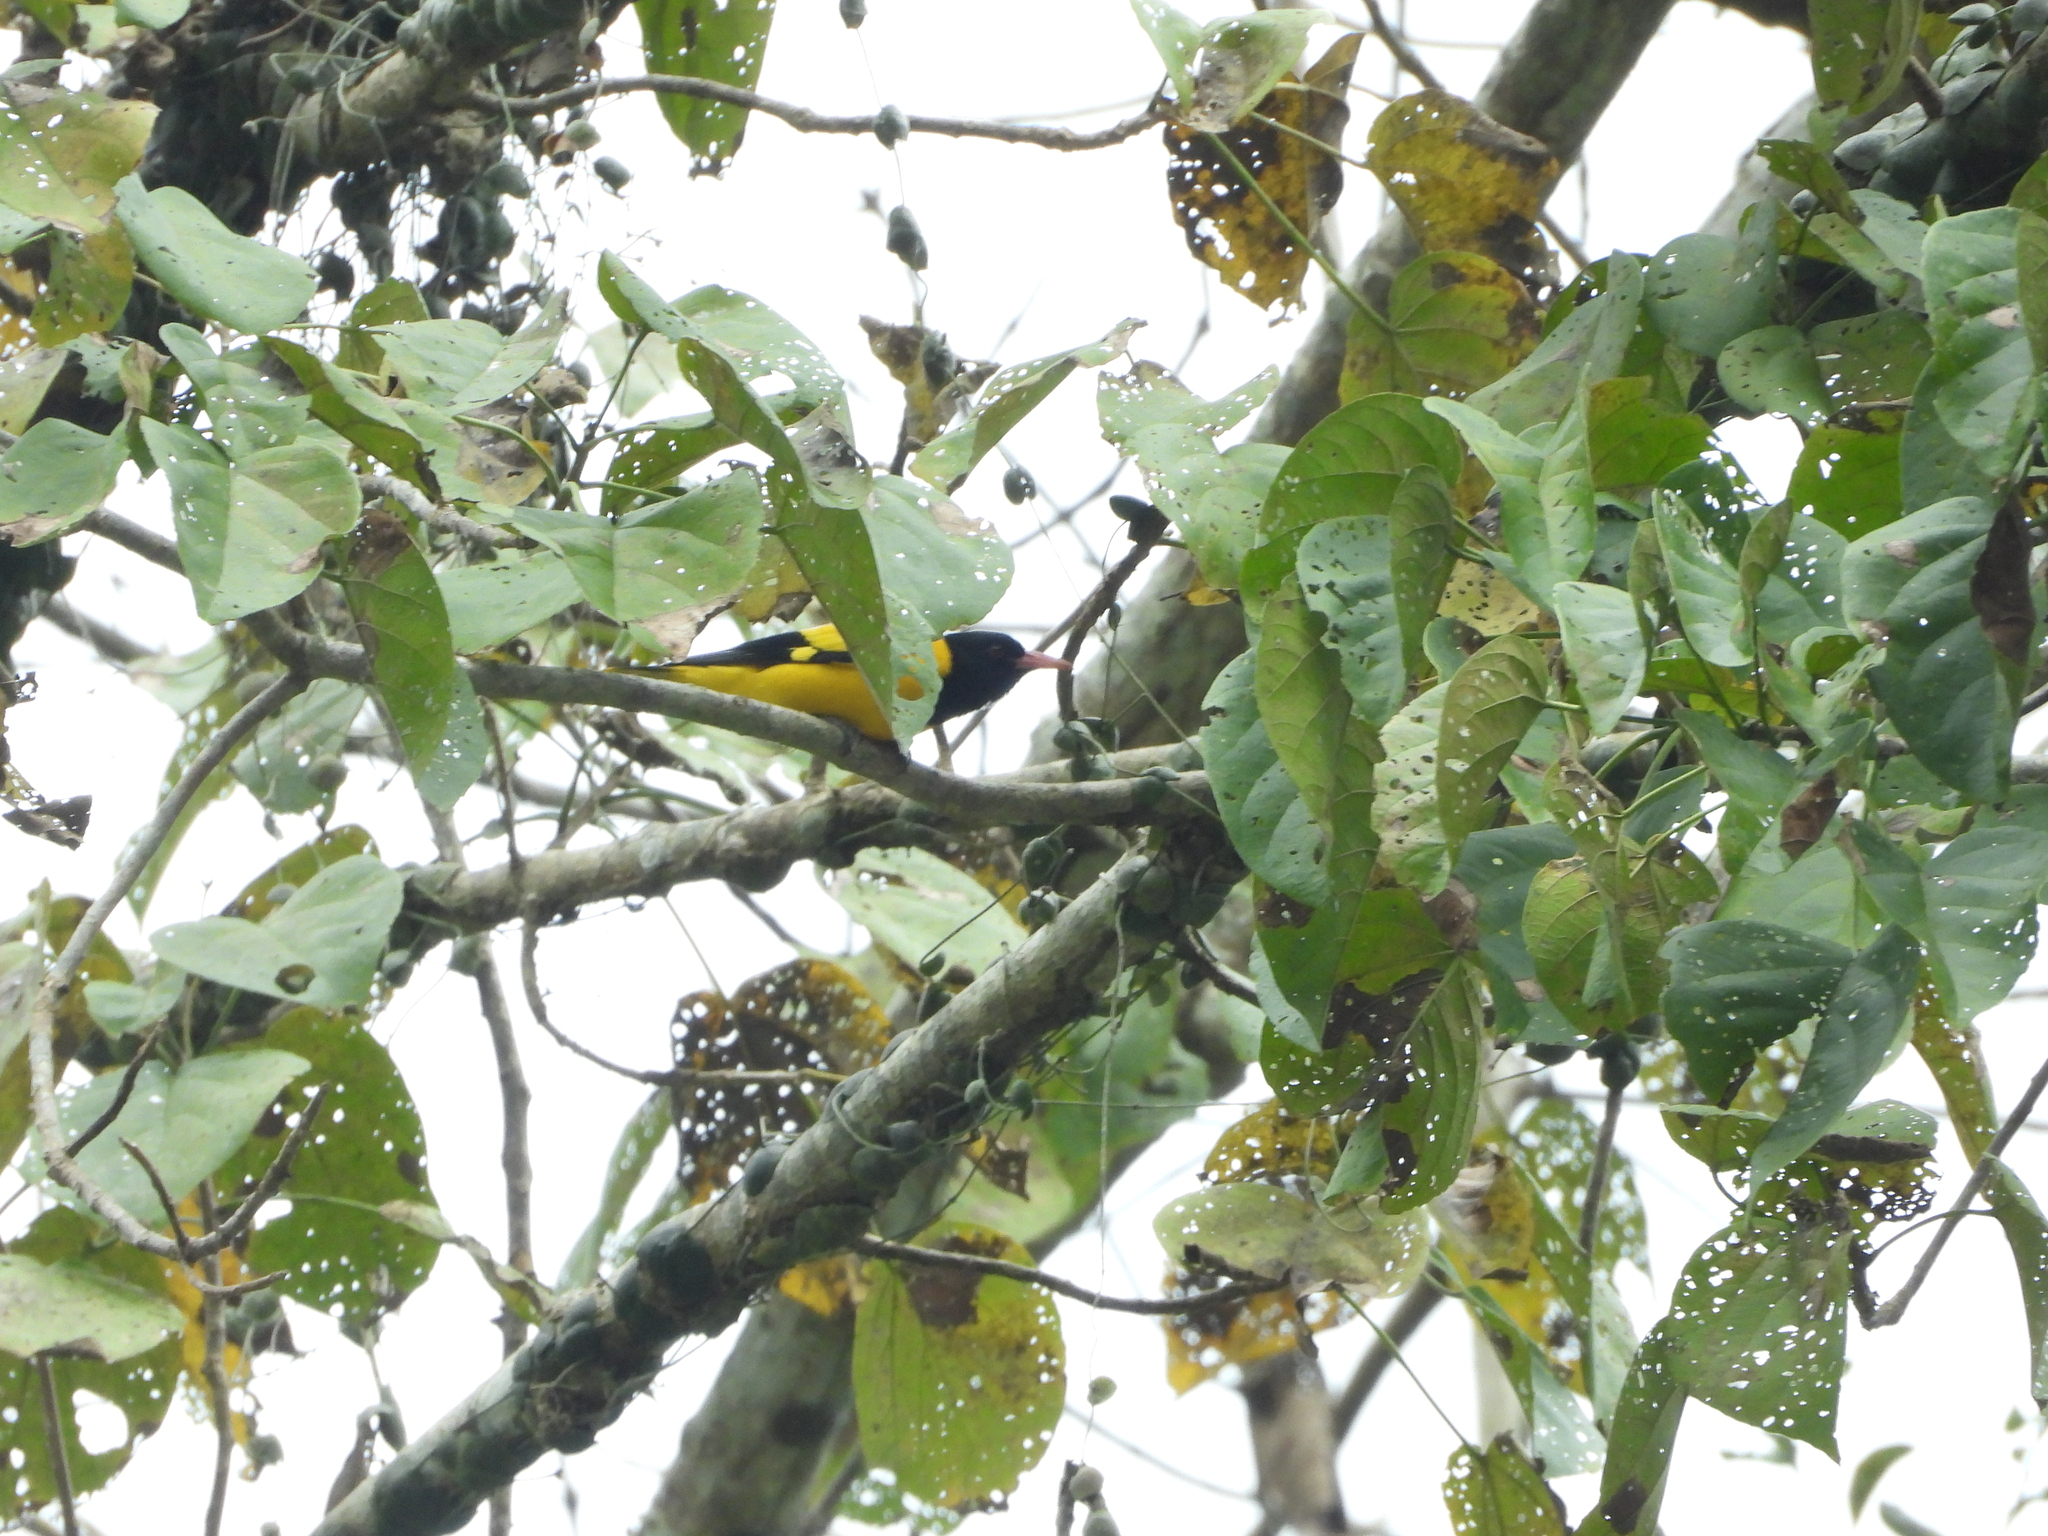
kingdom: Animalia
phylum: Chordata
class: Aves
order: Passeriformes
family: Oriolidae
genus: Oriolus
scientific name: Oriolus xanthornus
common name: Black-hooded oriole
